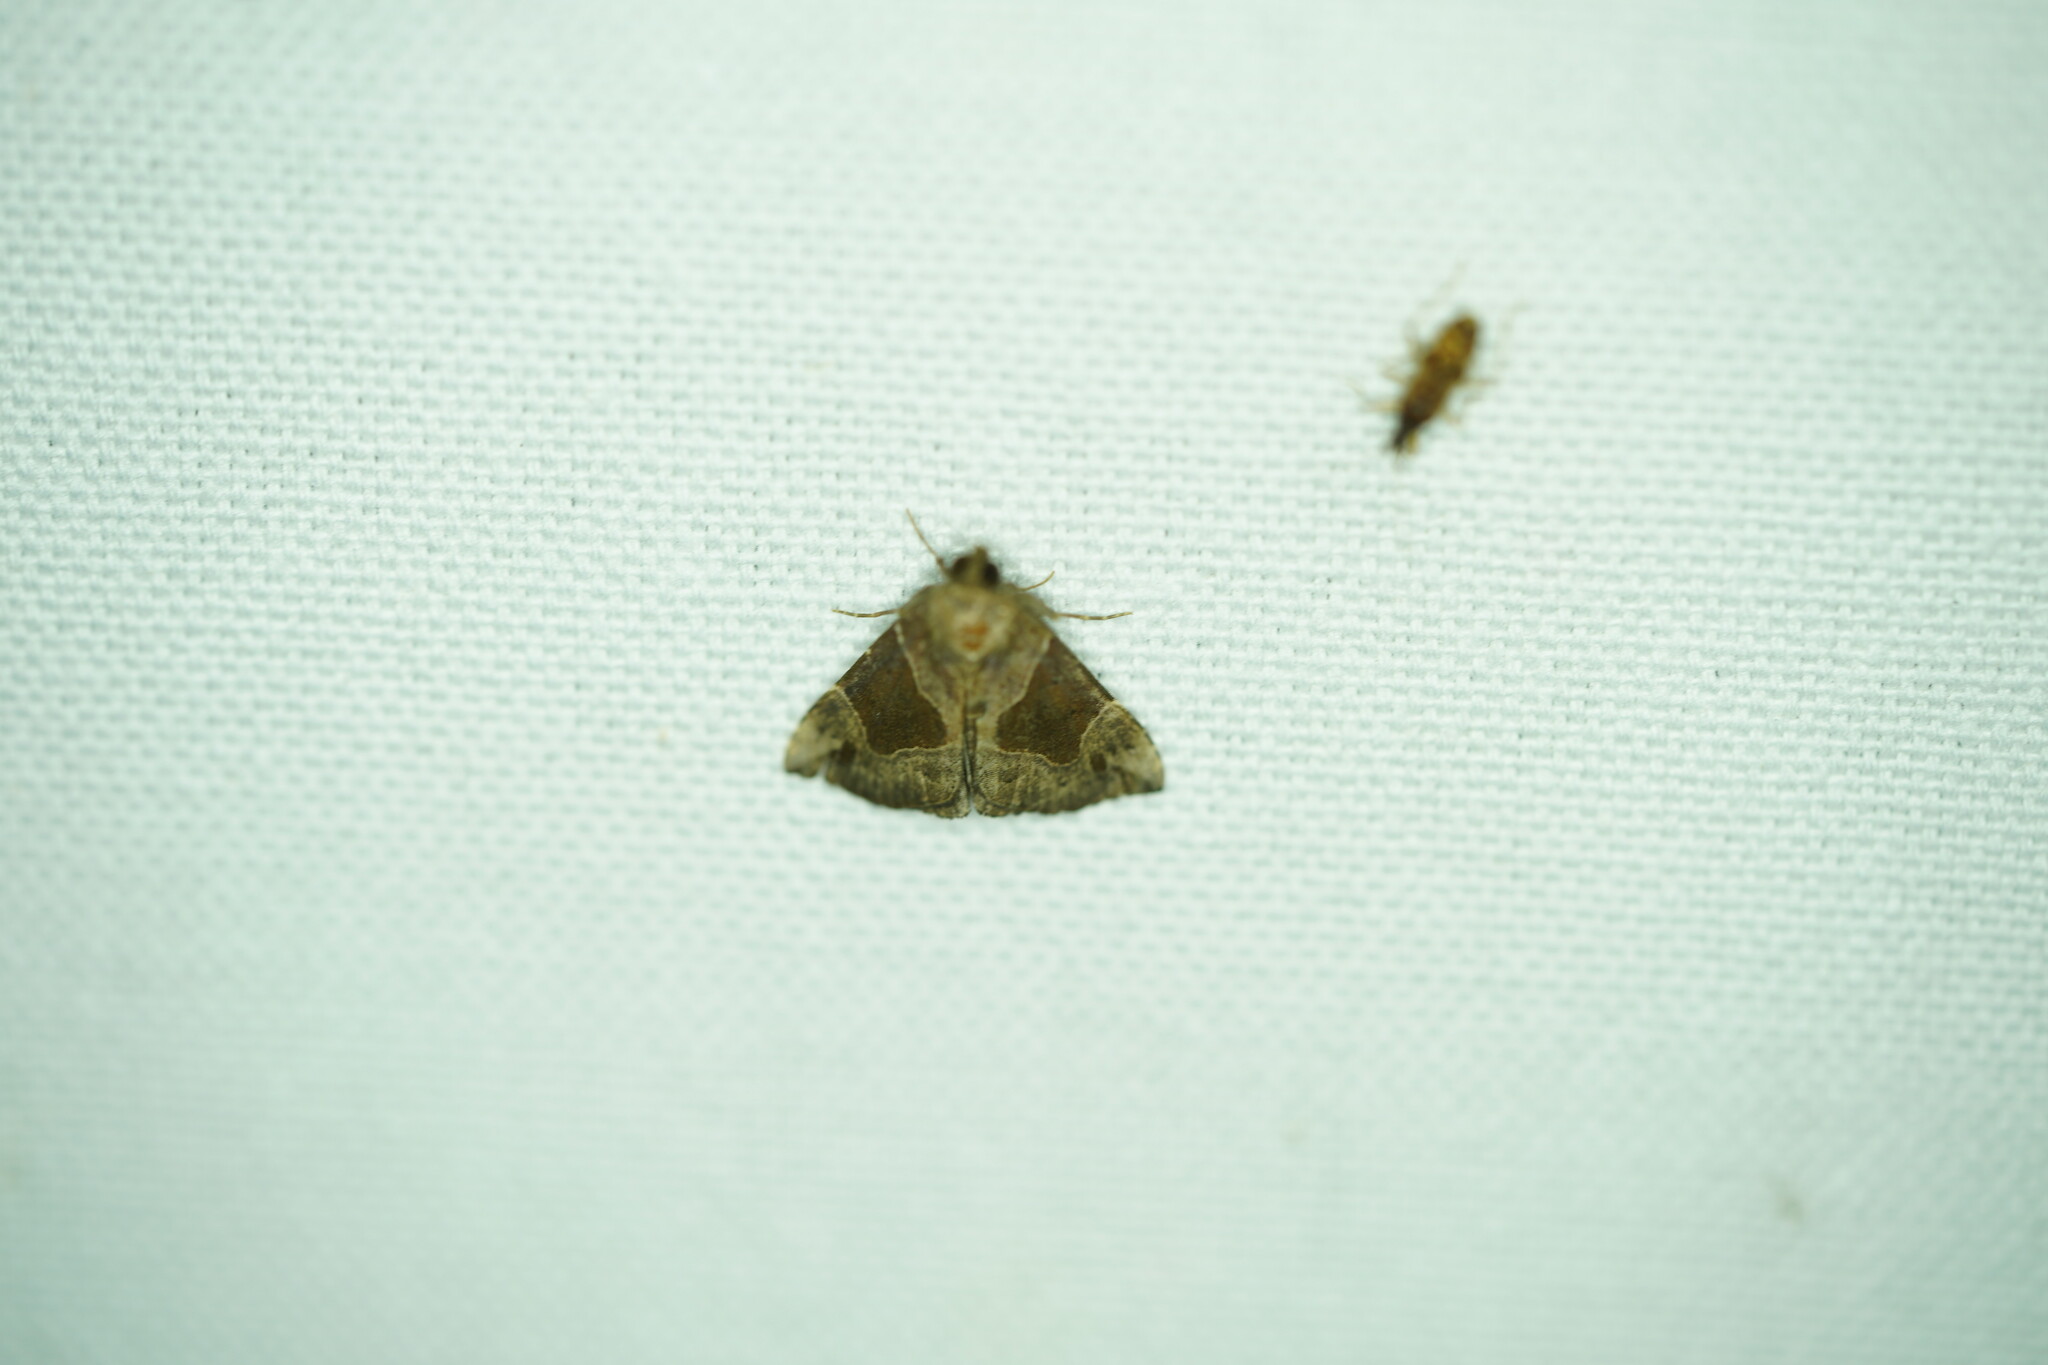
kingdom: Animalia
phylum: Arthropoda
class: Insecta
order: Lepidoptera
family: Erebidae
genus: Hypena
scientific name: Hypena manalis
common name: Flowing-line bomolocha moth
